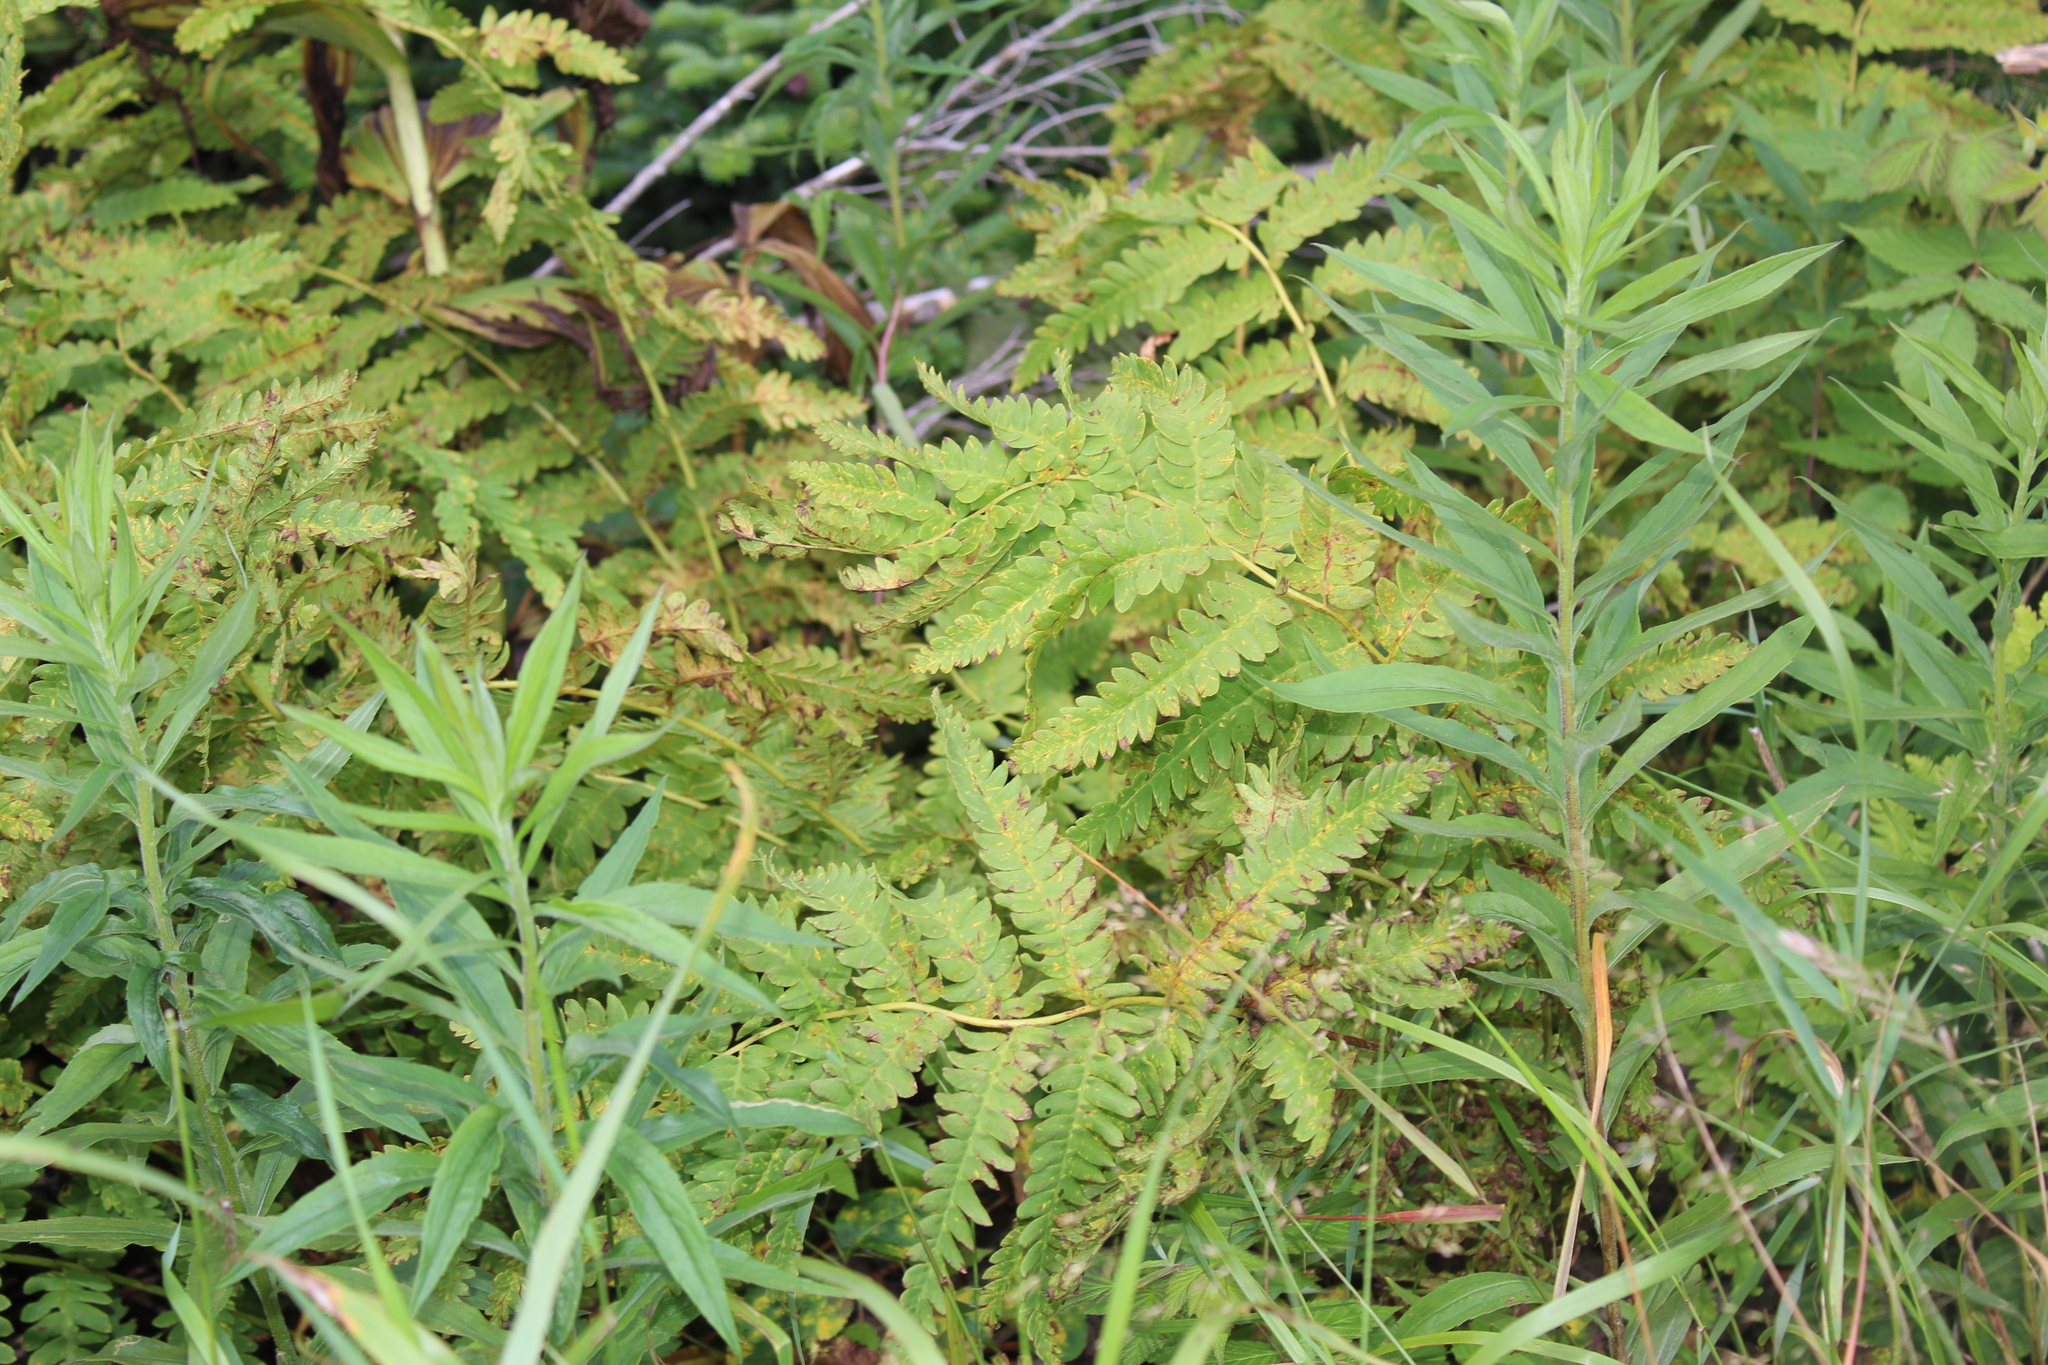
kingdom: Plantae
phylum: Tracheophyta
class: Polypodiopsida
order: Osmundales
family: Osmundaceae
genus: Osmundastrum
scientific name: Osmundastrum cinnamomeum
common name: Cinnamon fern
